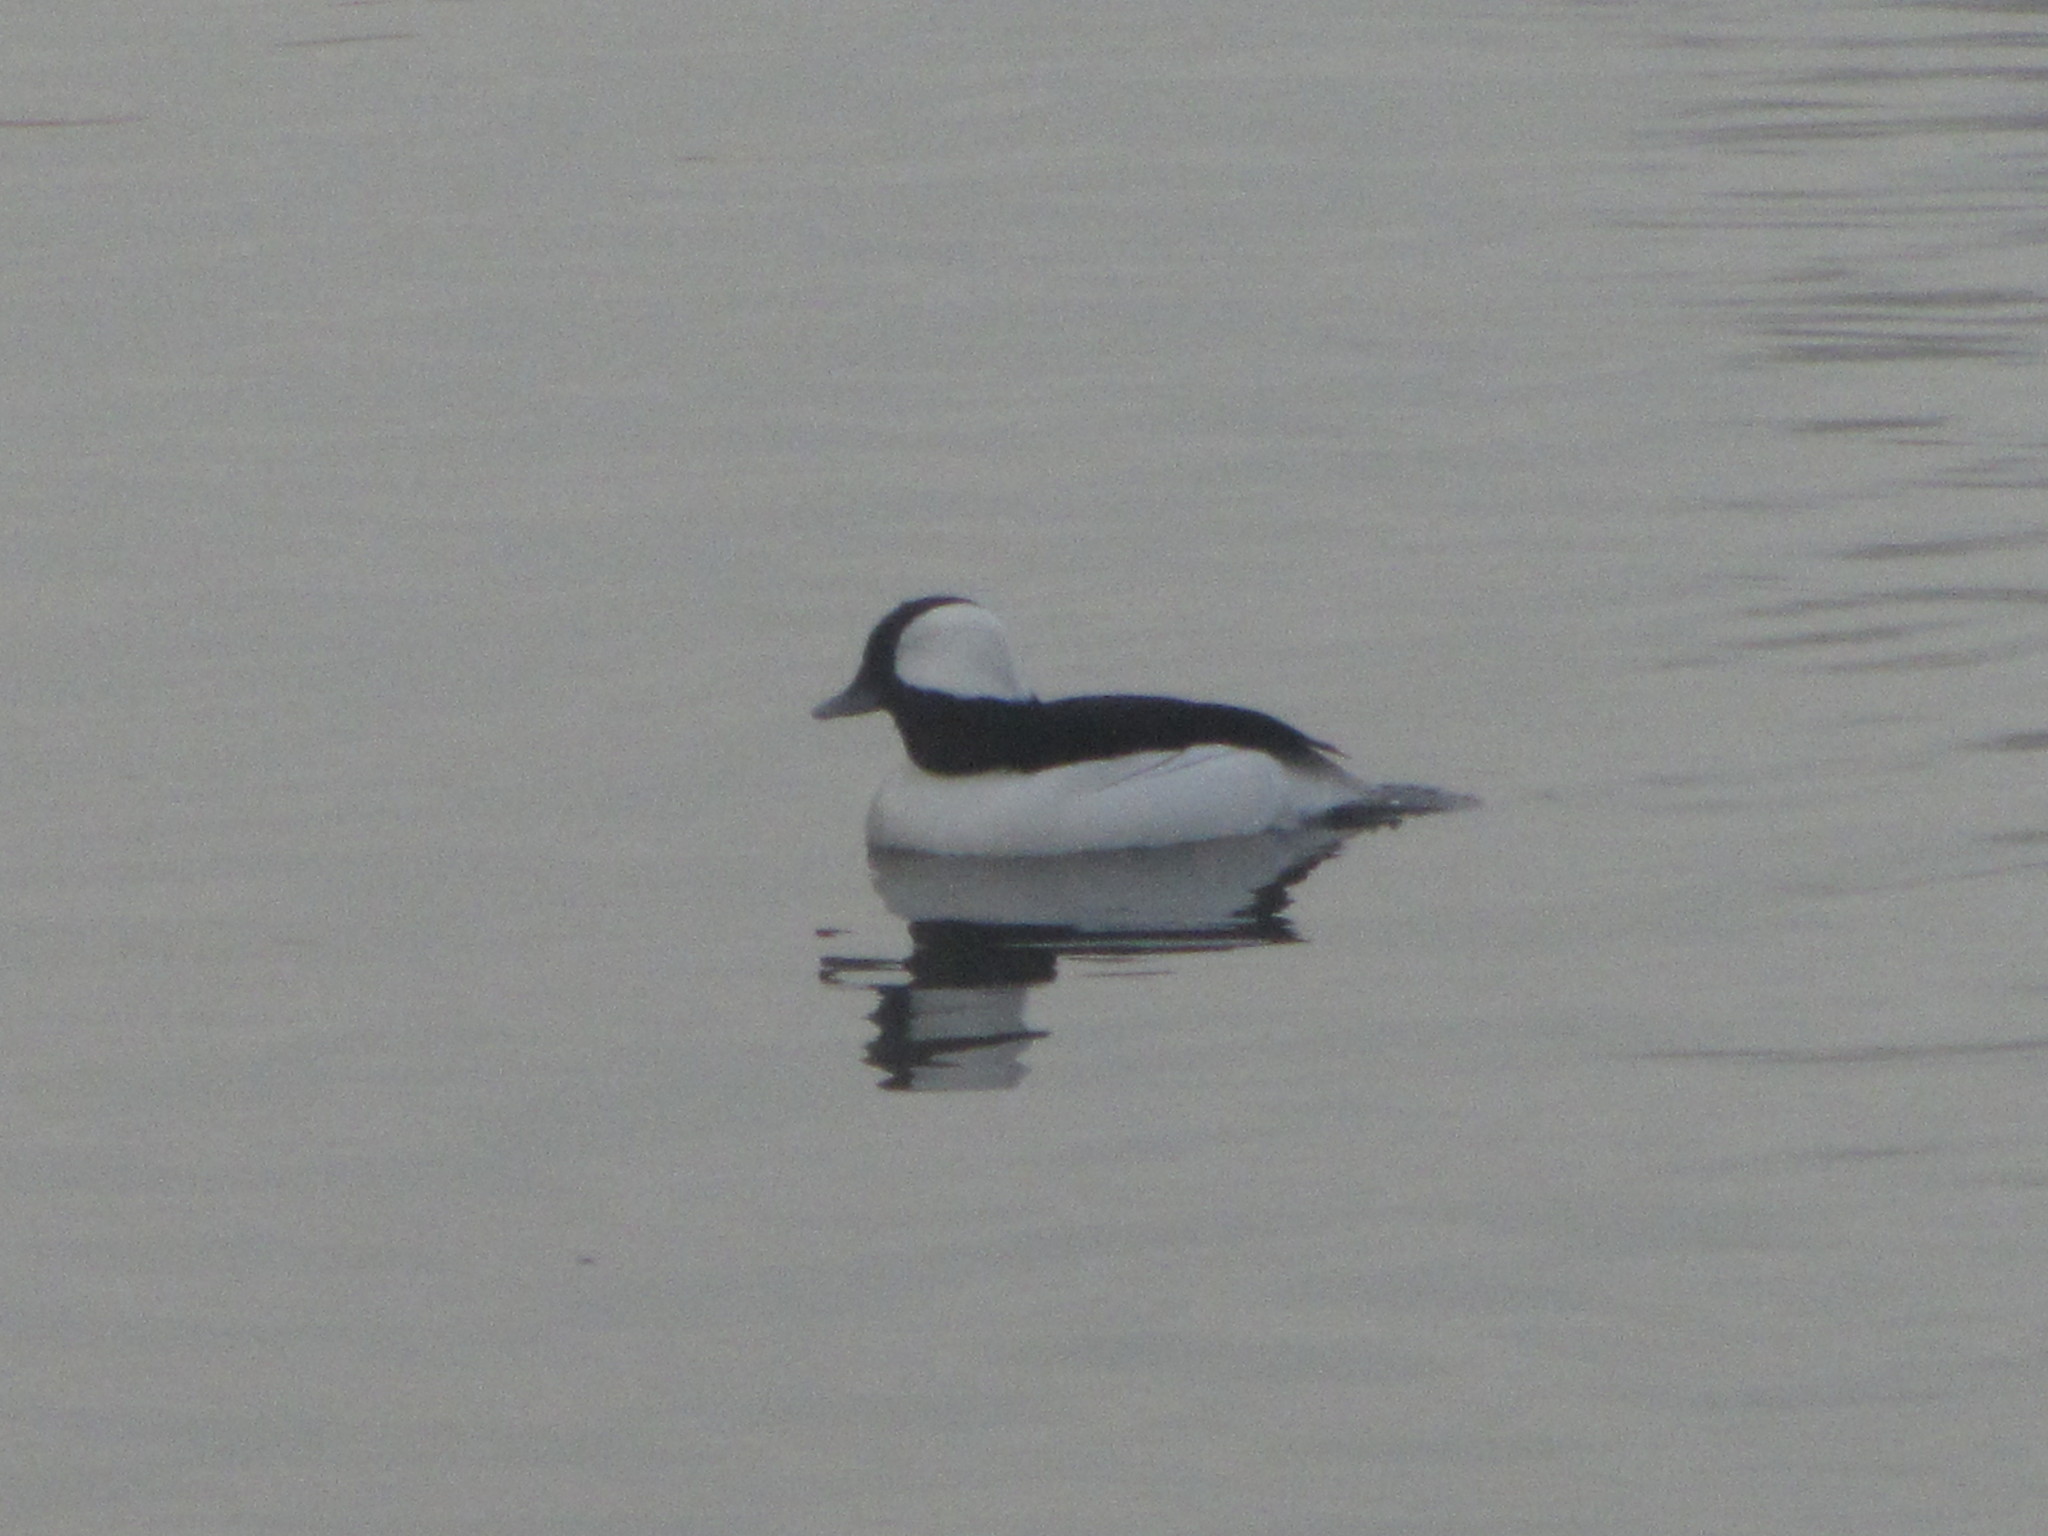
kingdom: Animalia
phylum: Chordata
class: Aves
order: Anseriformes
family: Anatidae
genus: Bucephala
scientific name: Bucephala albeola
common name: Bufflehead
